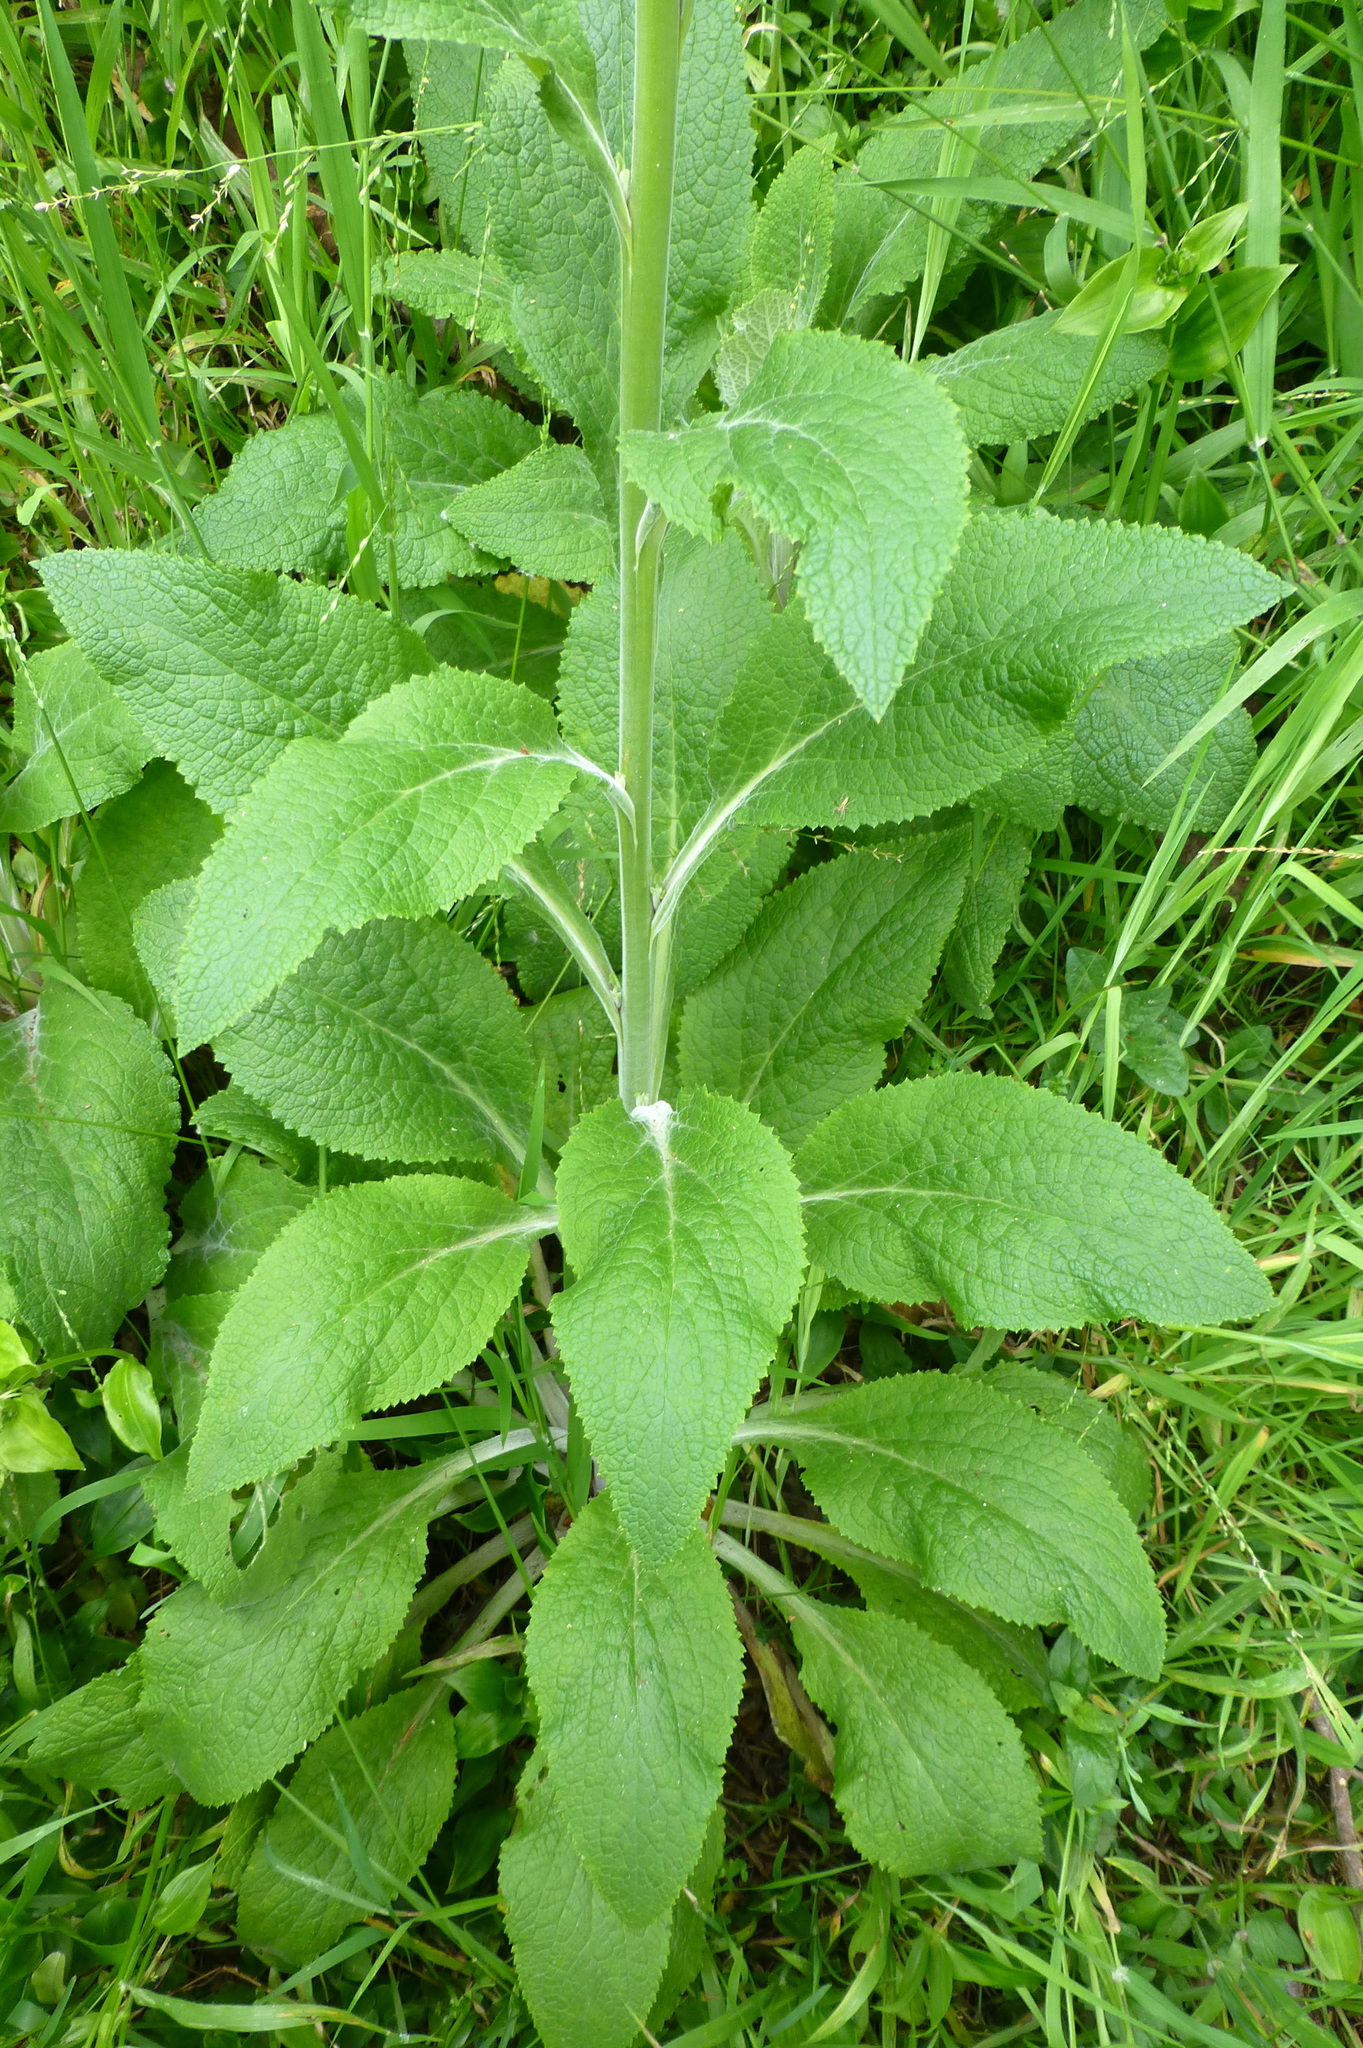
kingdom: Plantae
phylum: Tracheophyta
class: Magnoliopsida
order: Lamiales
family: Plantaginaceae
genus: Digitalis
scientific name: Digitalis purpurea
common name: Foxglove
